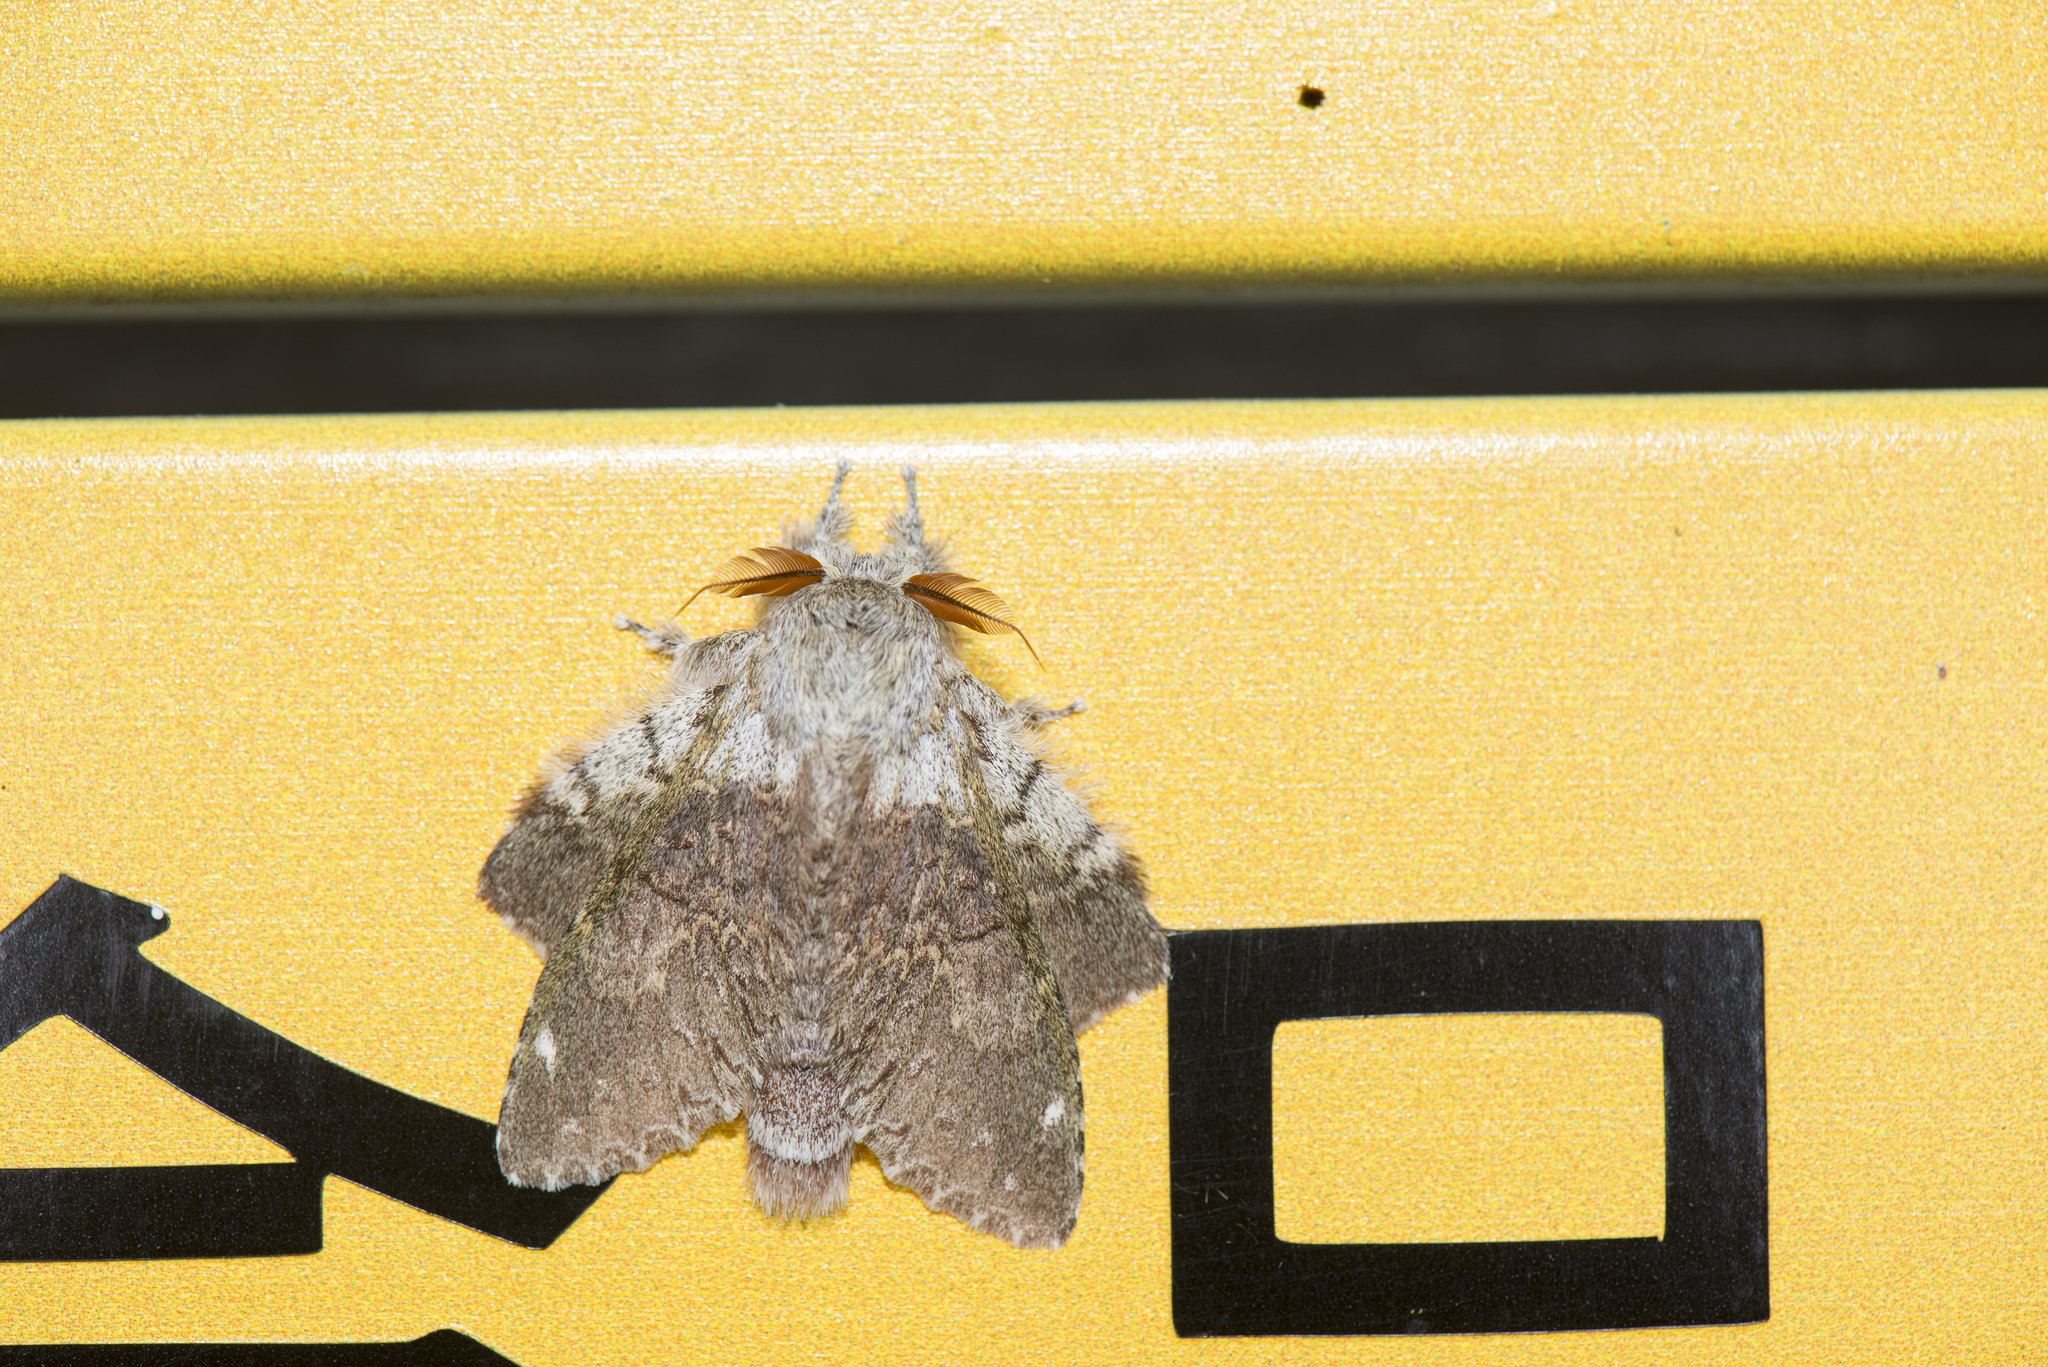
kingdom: Animalia
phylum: Arthropoda
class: Insecta
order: Lepidoptera
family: Notodontidae
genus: Stauropus
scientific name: Stauropus teikichiana
